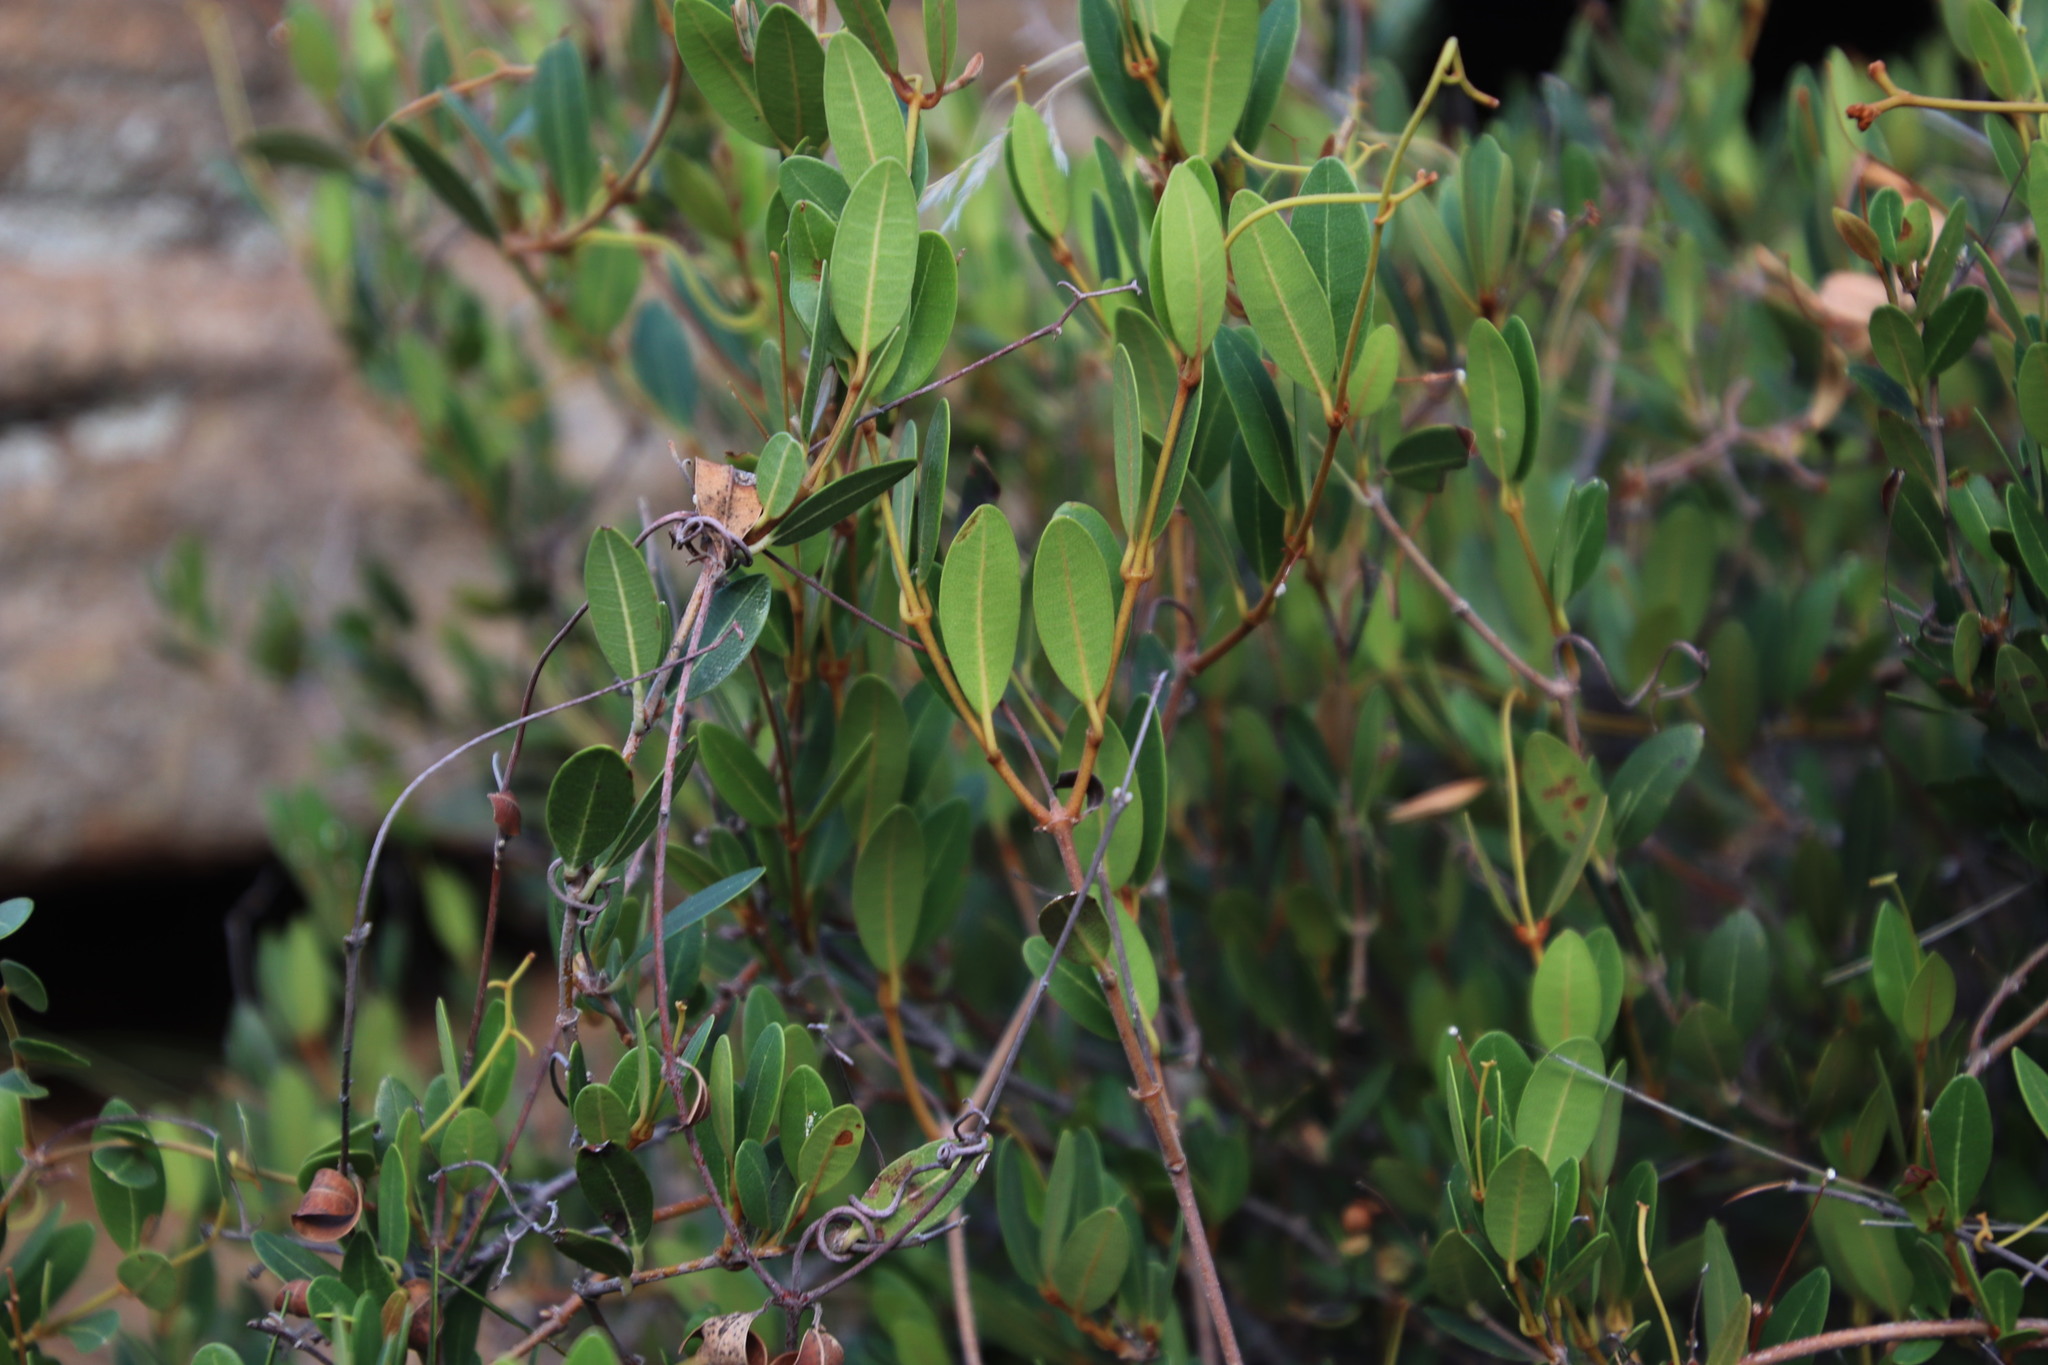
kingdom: Plantae
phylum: Tracheophyta
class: Magnoliopsida
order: Gentianales
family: Apocynaceae
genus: Ancylobothrys
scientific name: Ancylobothrys capensis
